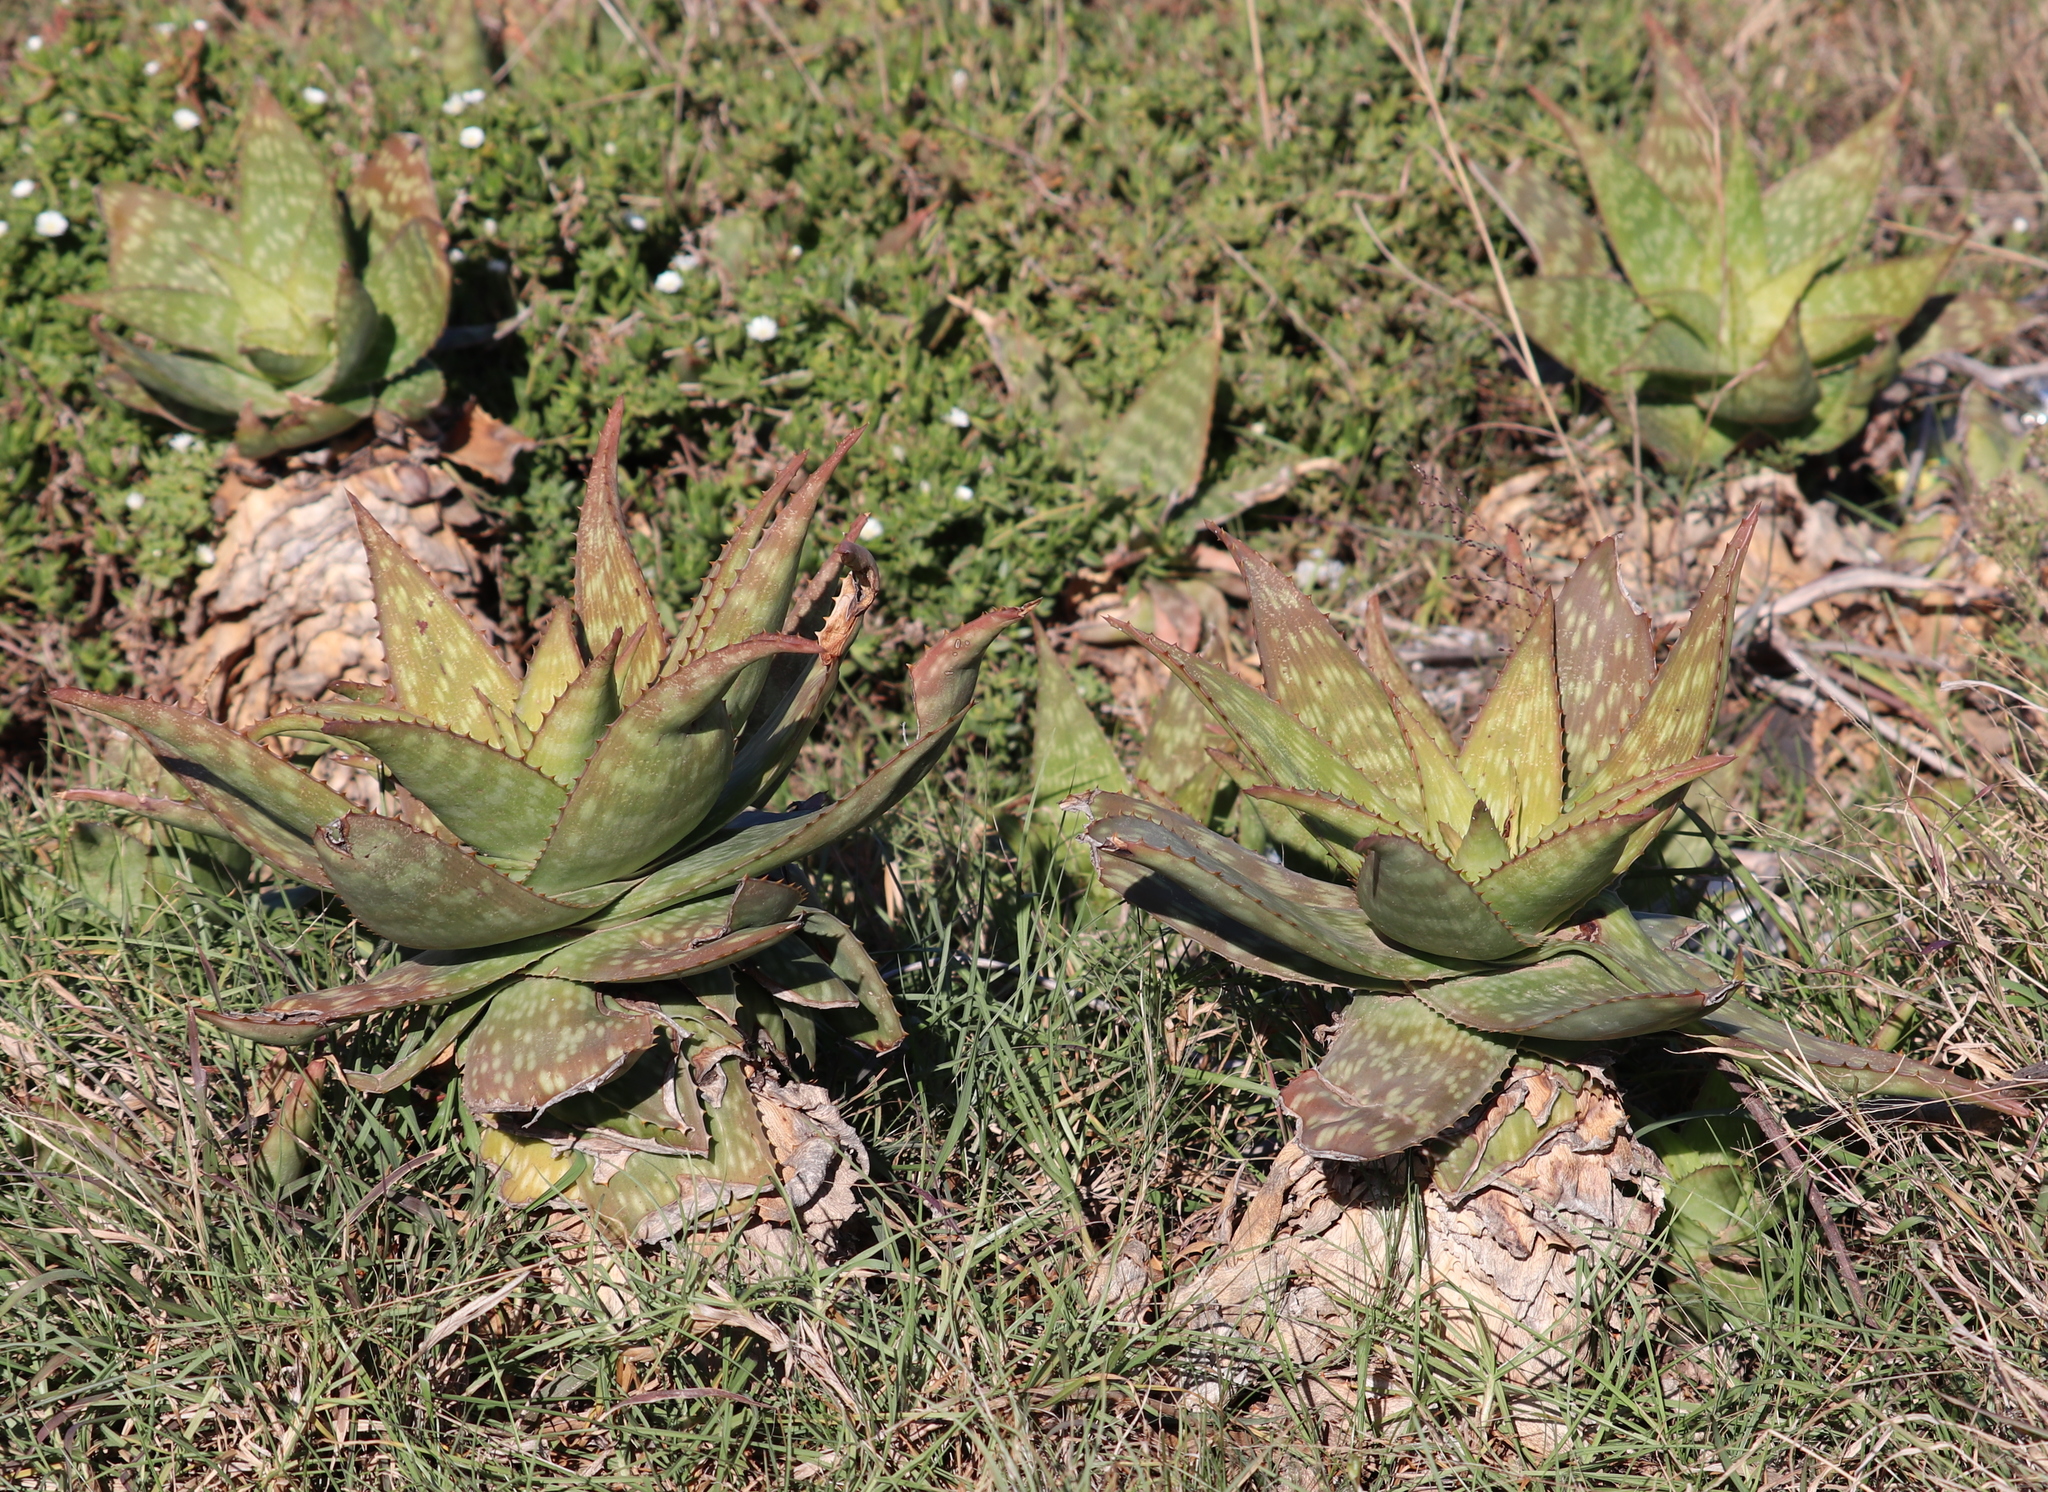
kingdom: Plantae
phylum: Tracheophyta
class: Liliopsida
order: Asparagales
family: Asphodelaceae
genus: Aloe
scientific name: Aloe maculata
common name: Broadleaf aloe
